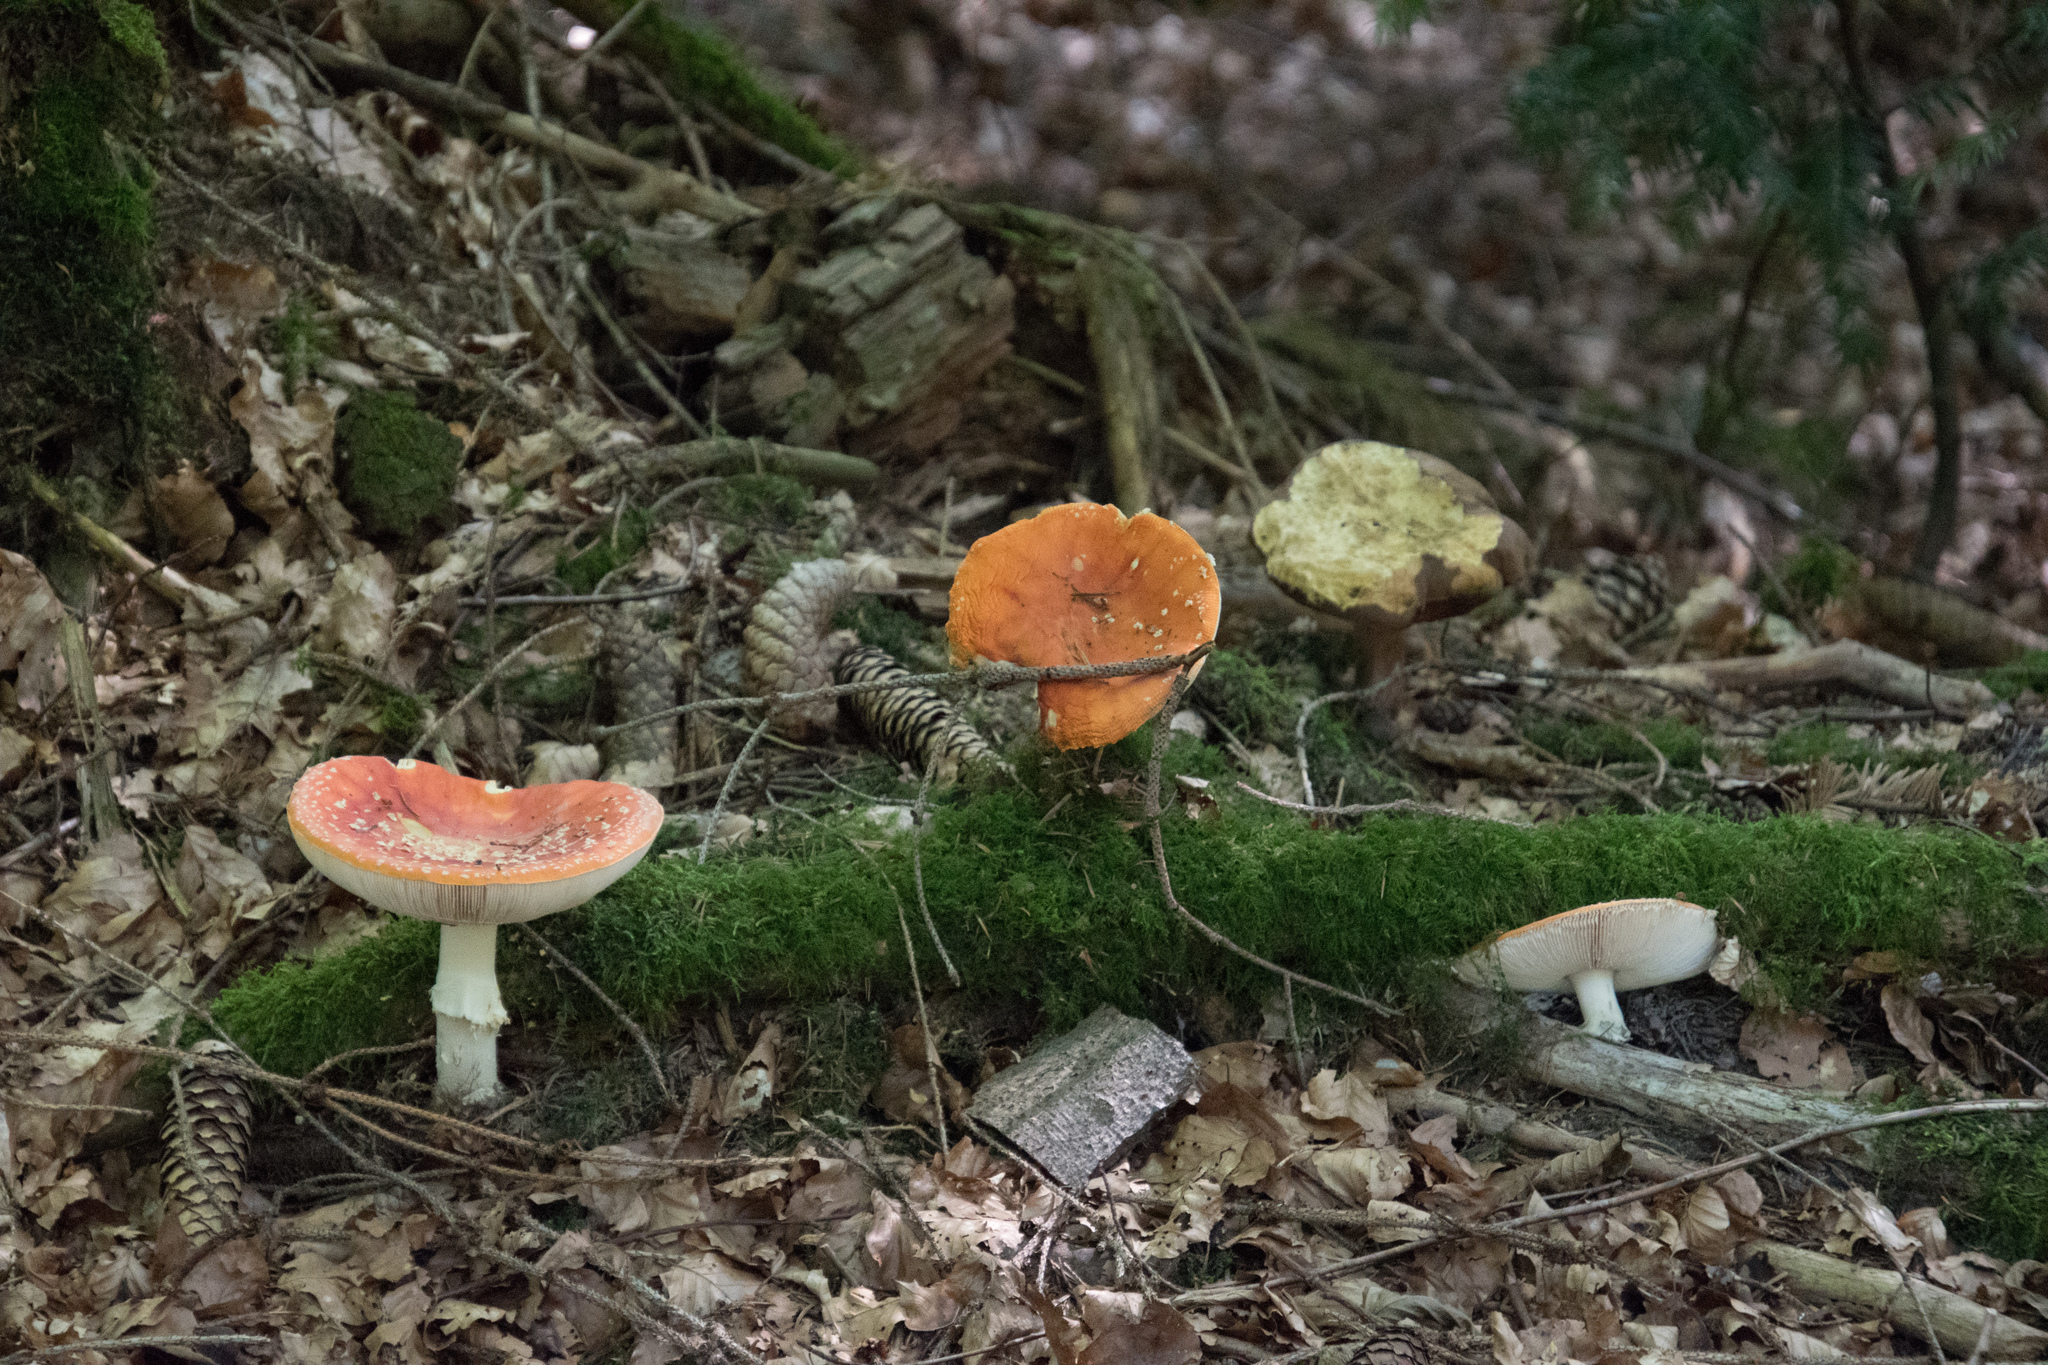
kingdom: Fungi
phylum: Basidiomycota
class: Agaricomycetes
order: Agaricales
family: Amanitaceae
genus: Amanita
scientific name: Amanita muscaria
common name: Fly agaric
